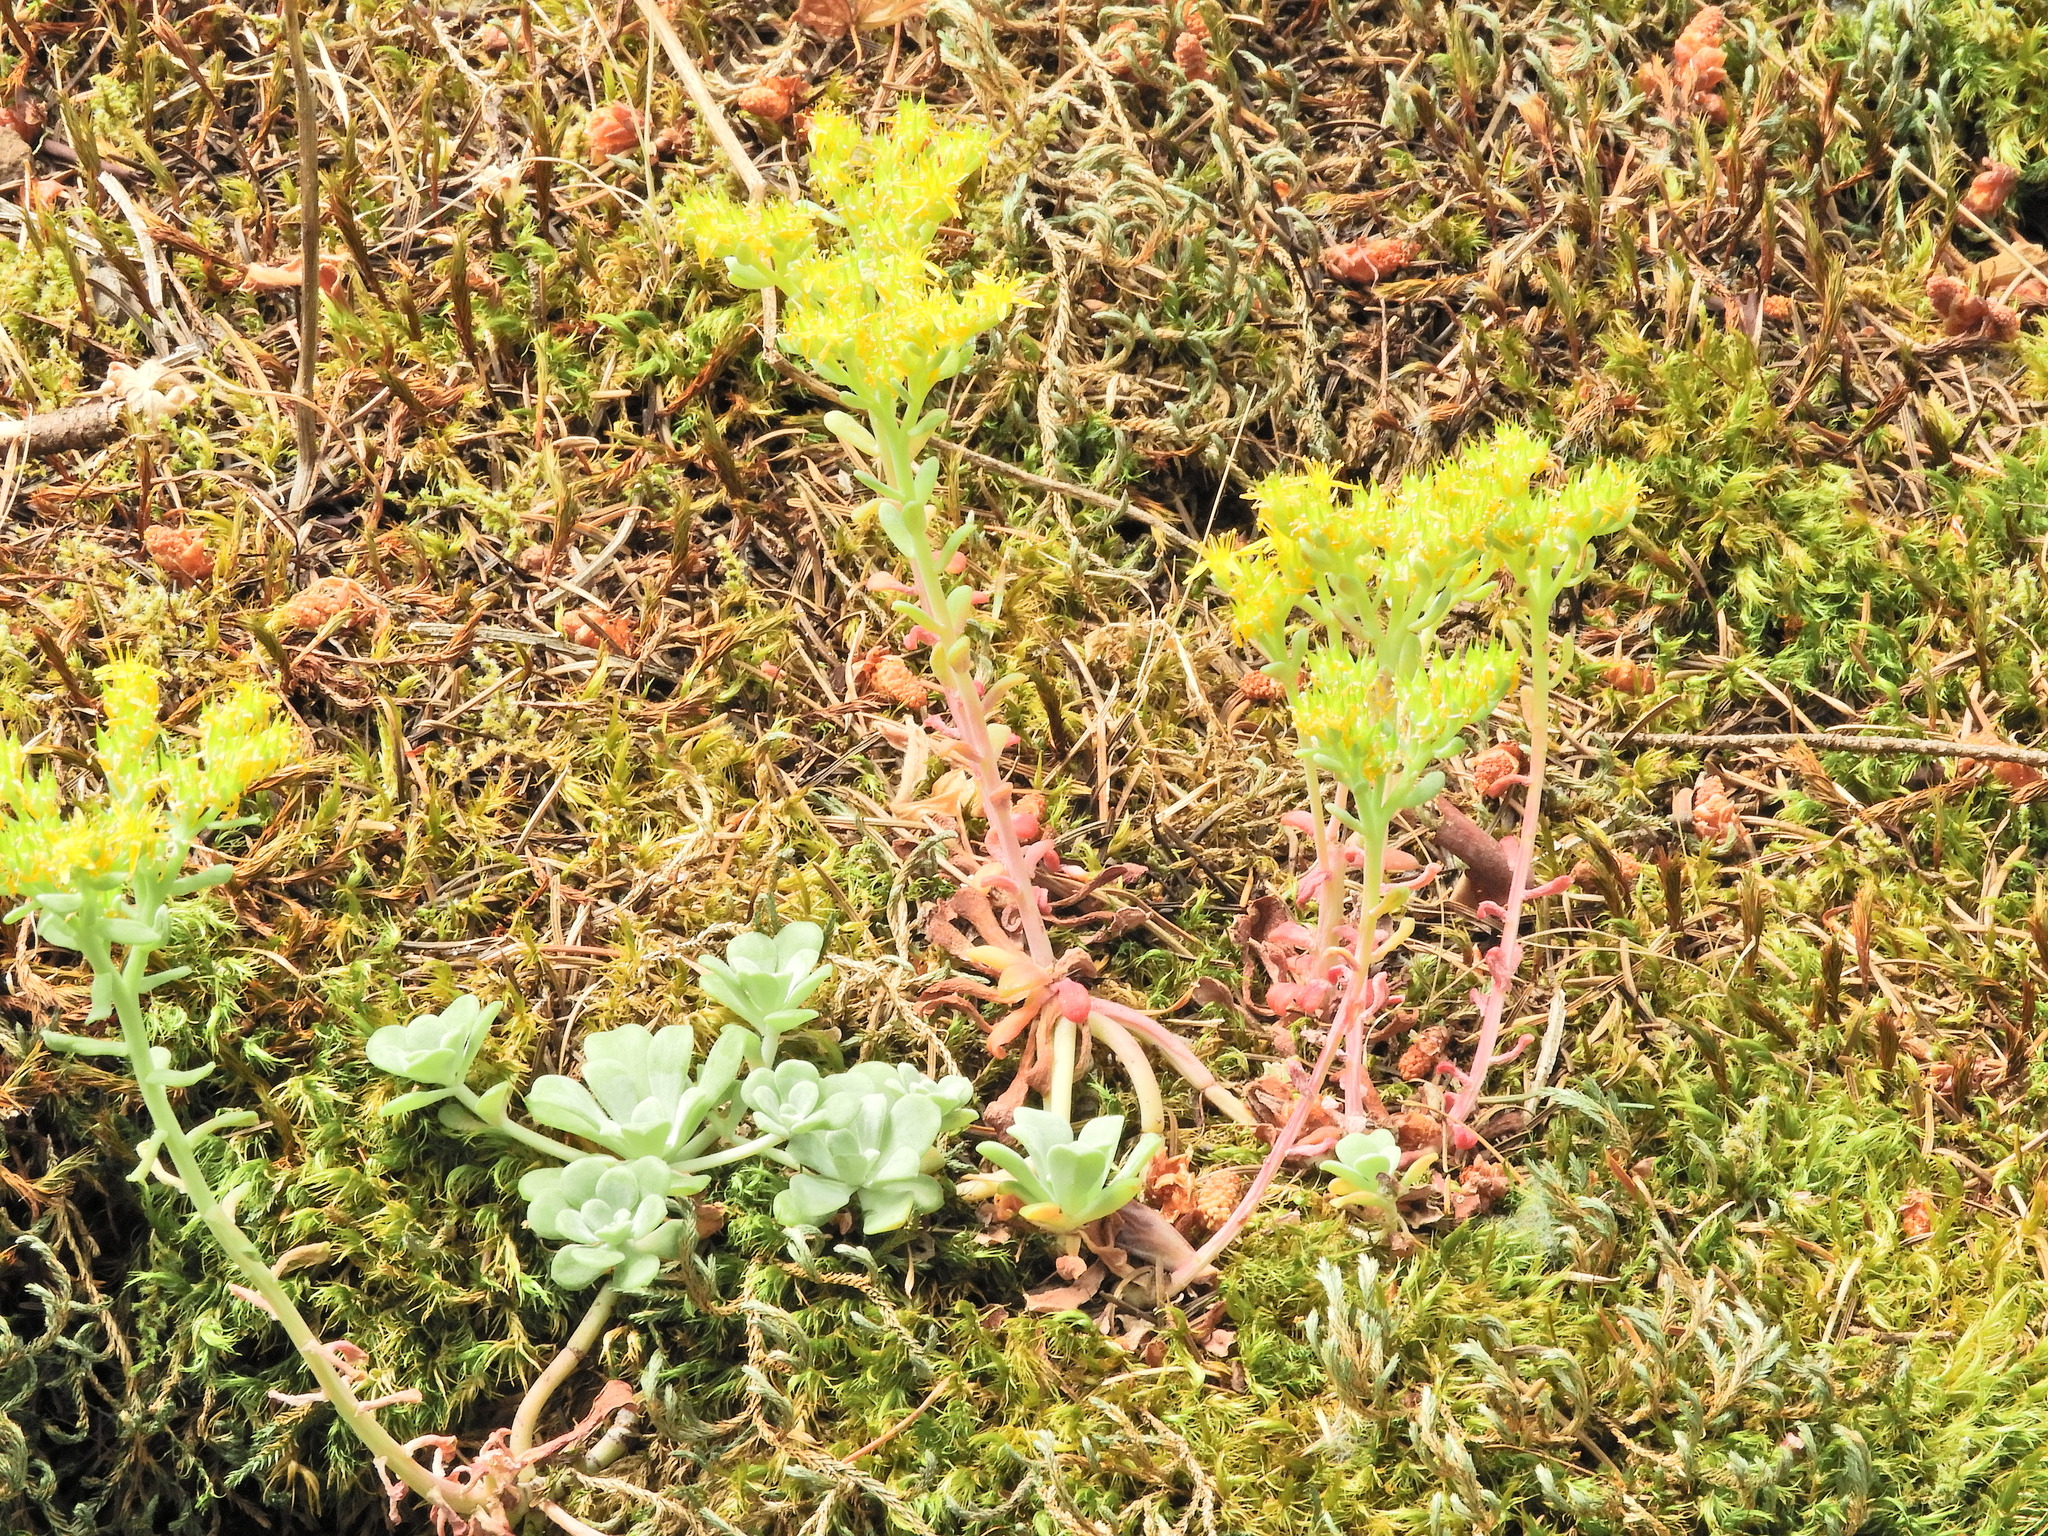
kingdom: Plantae
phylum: Tracheophyta
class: Magnoliopsida
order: Saxifragales
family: Crassulaceae
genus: Sedum
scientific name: Sedum spathulifolium
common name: Colorado stonecrop
